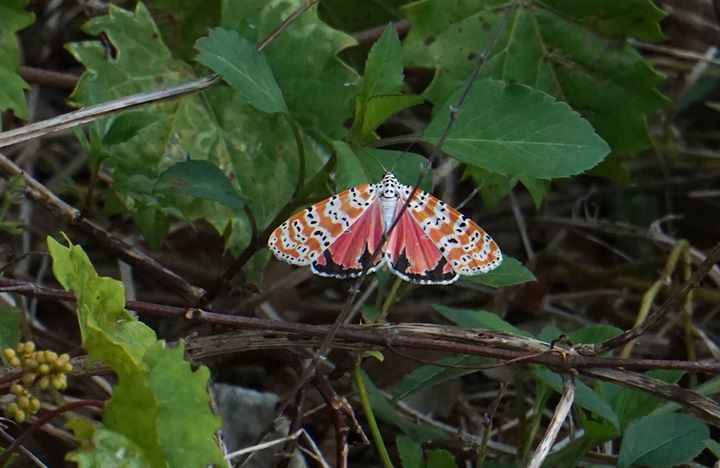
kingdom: Animalia
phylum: Arthropoda
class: Insecta
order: Lepidoptera
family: Erebidae
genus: Utetheisa
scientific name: Utetheisa ornatrix
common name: Beautiful utetheisa
